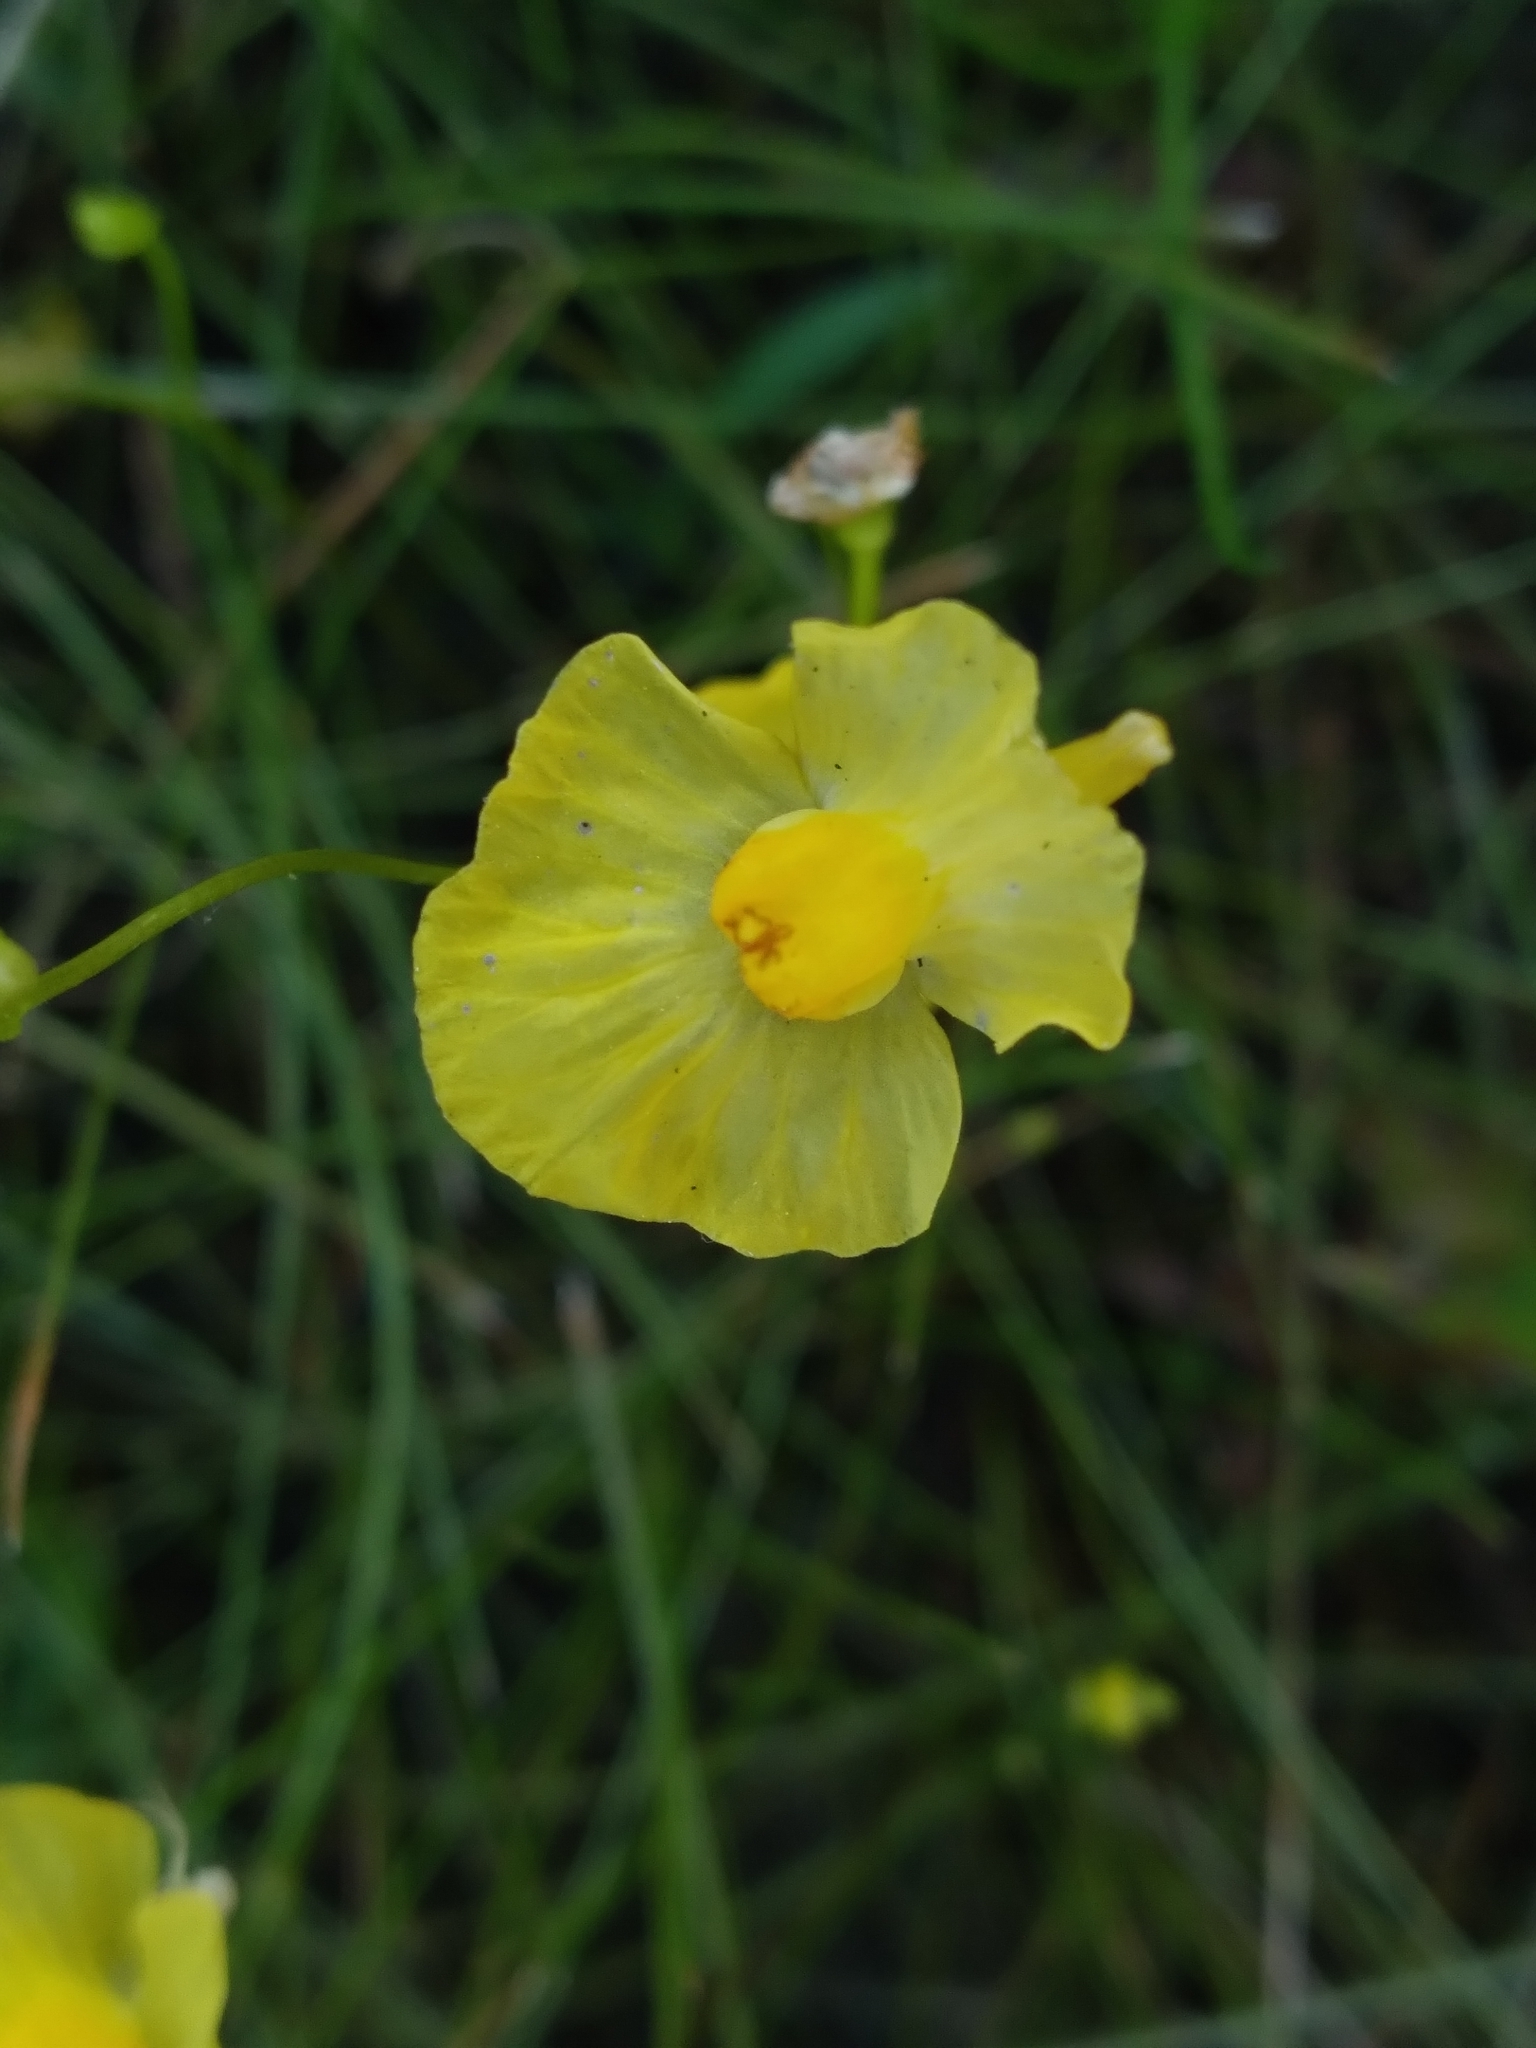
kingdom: Plantae
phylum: Tracheophyta
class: Magnoliopsida
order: Lamiales
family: Lentibulariaceae
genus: Utricularia
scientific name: Utricularia gibba
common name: Humped bladderwort
